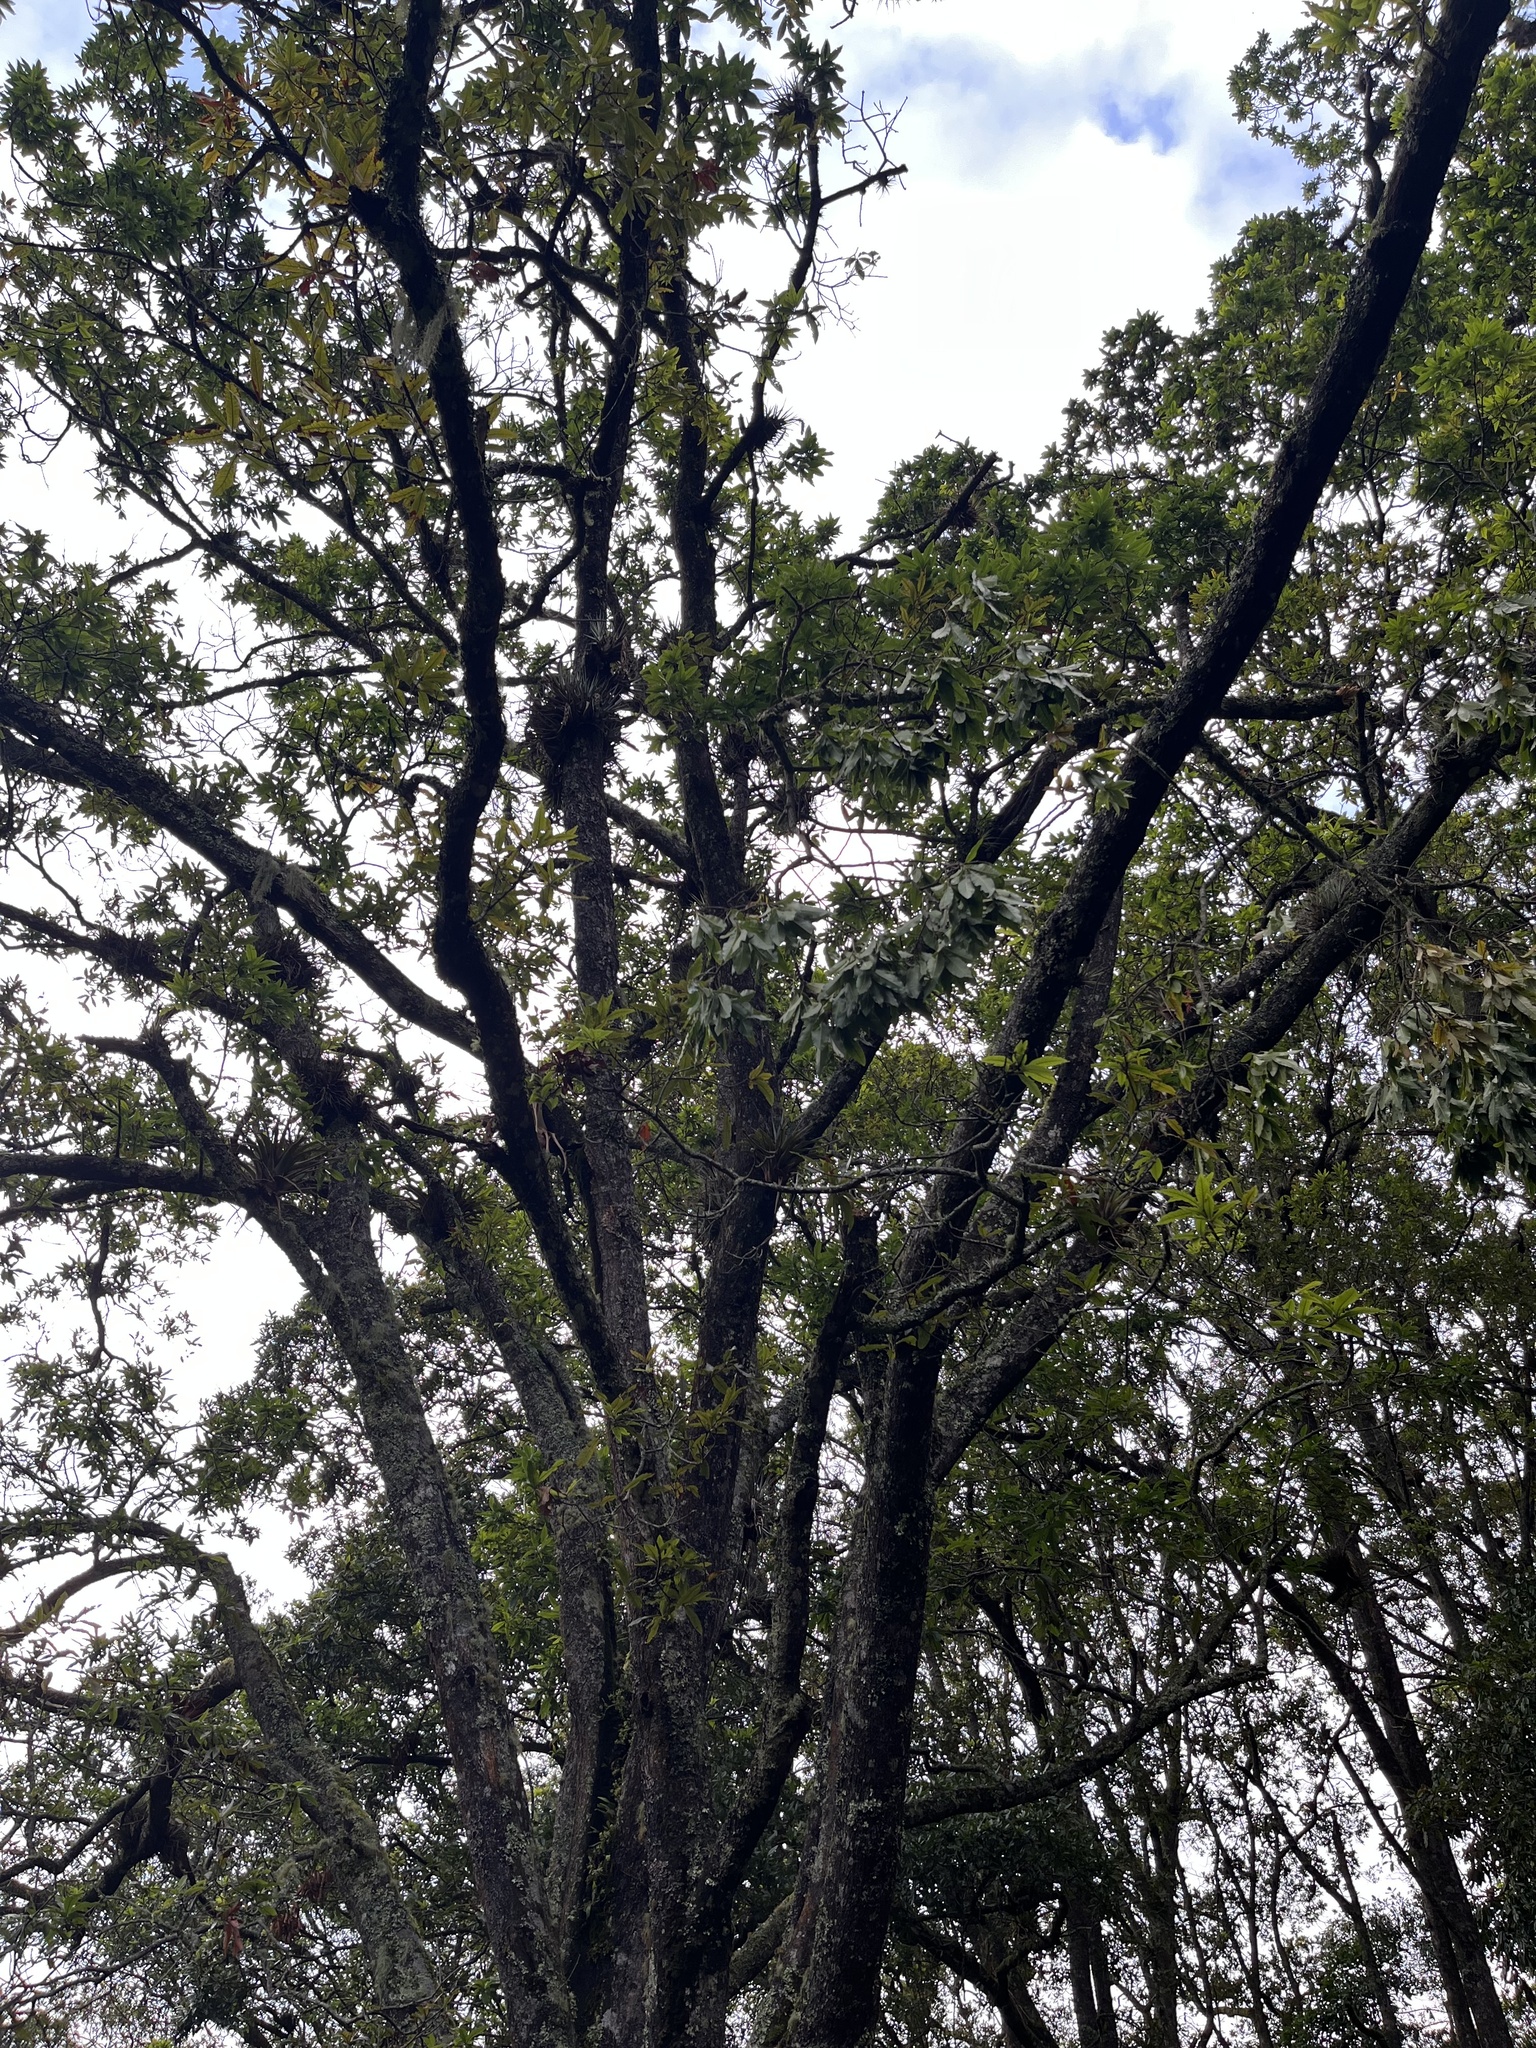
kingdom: Plantae
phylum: Tracheophyta
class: Magnoliopsida
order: Fagales
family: Fagaceae
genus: Quercus
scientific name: Quercus humboldtii
